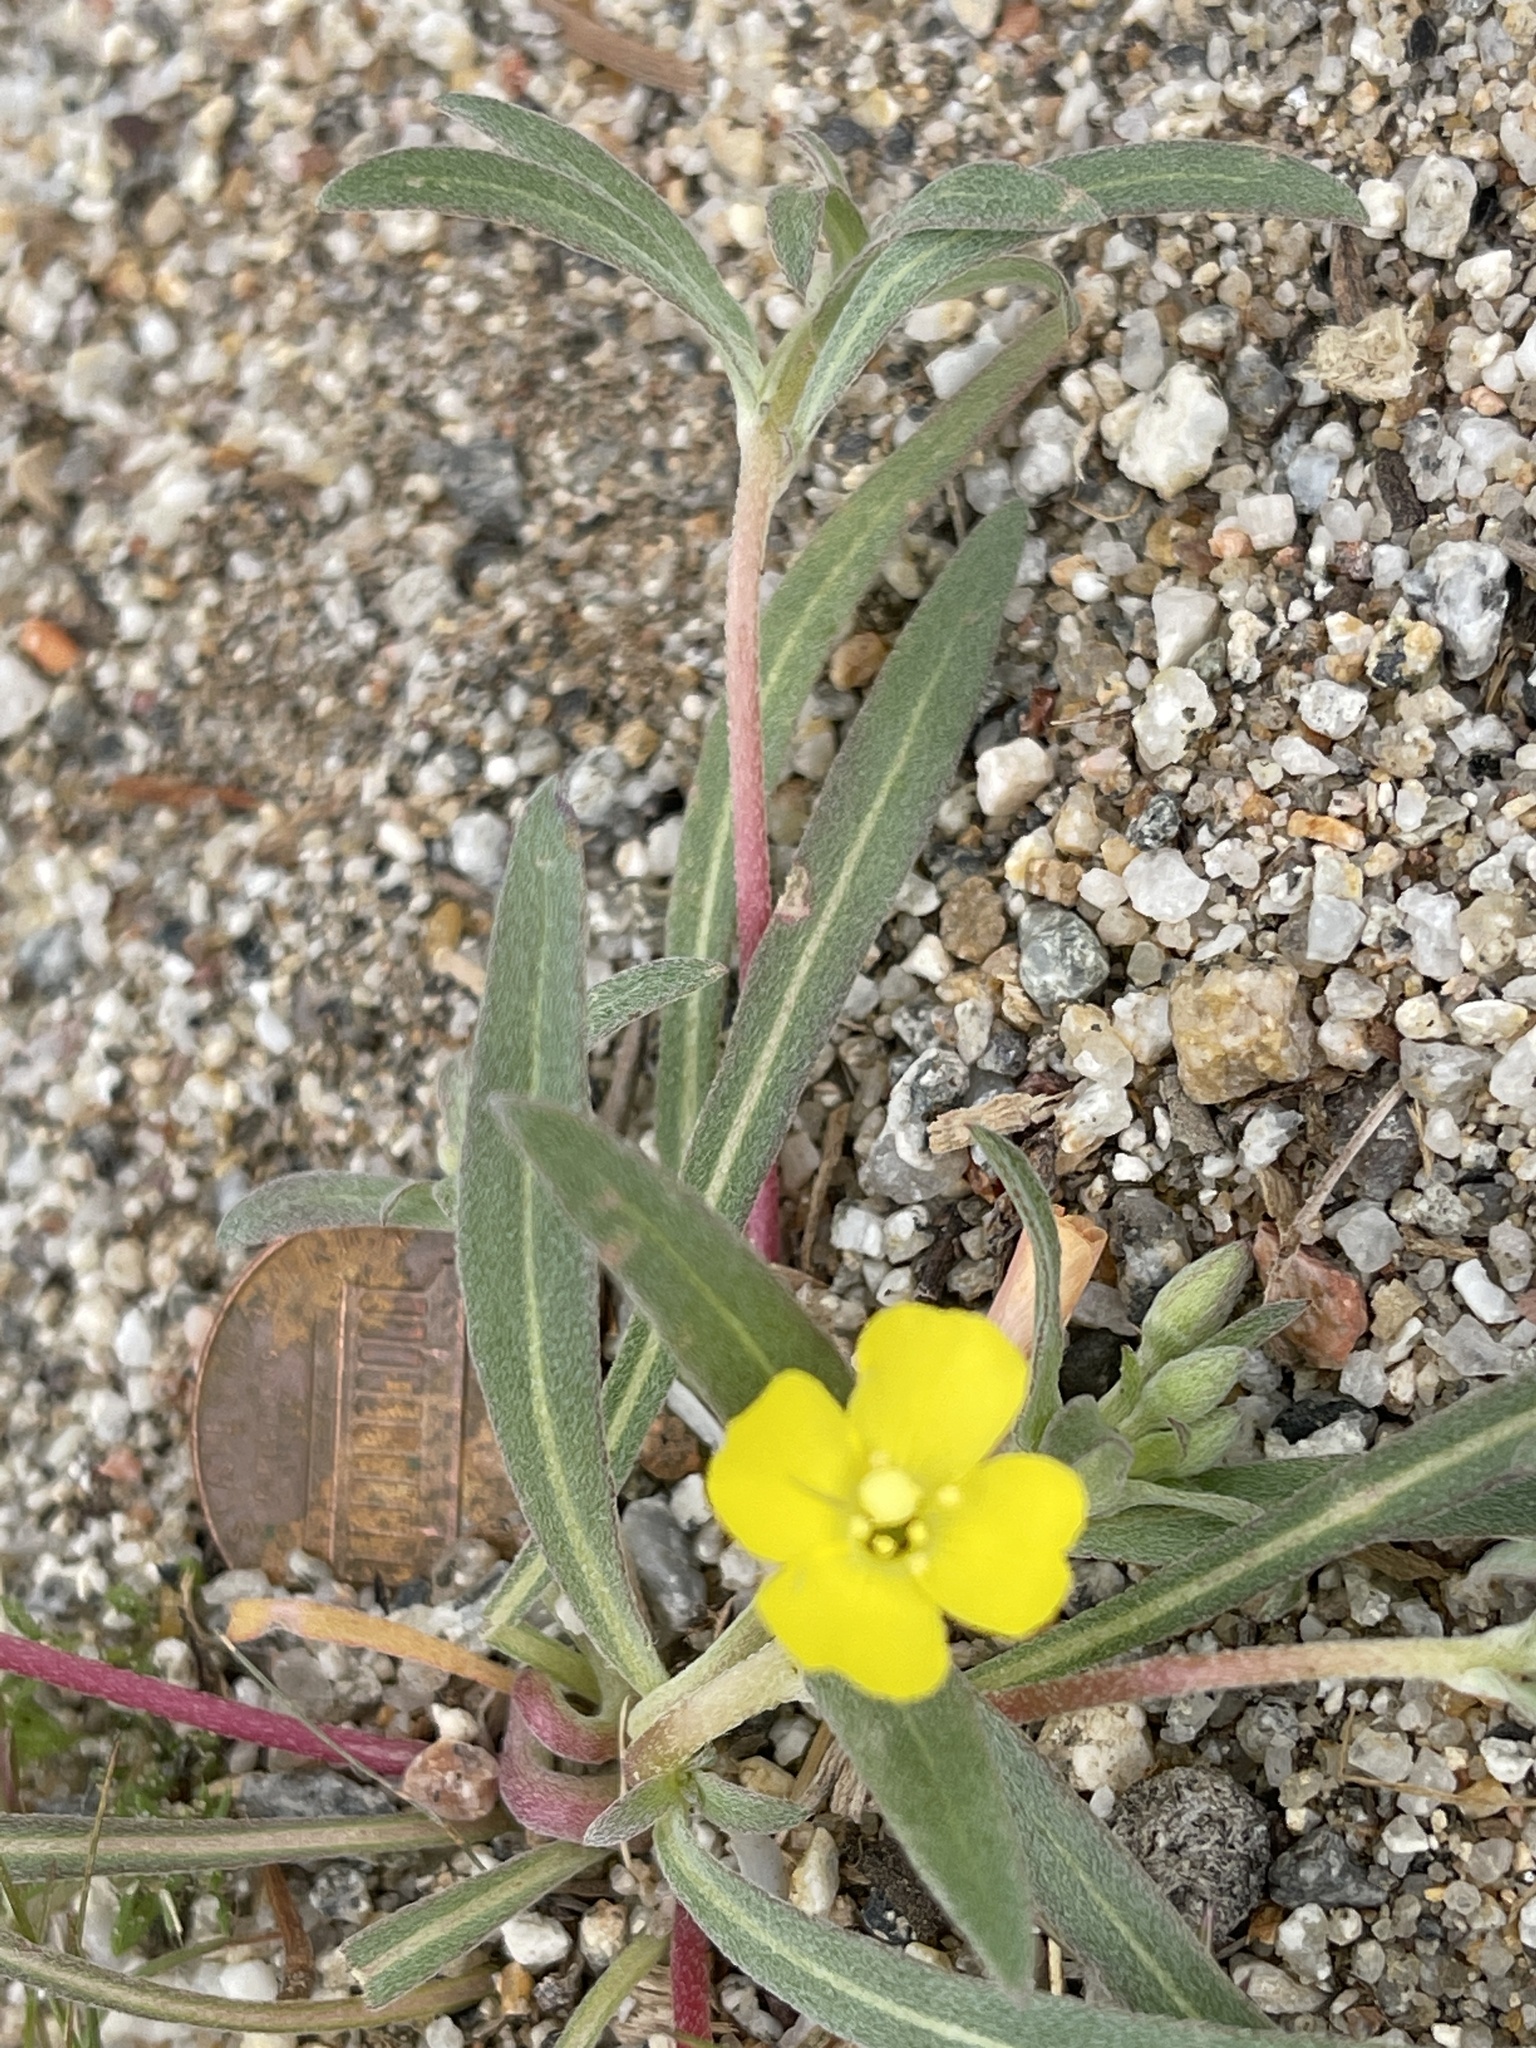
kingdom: Plantae
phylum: Tracheophyta
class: Magnoliopsida
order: Myrtales
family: Onagraceae
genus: Camissoniopsis
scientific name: Camissoniopsis pallida
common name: Paleyellow suncup
